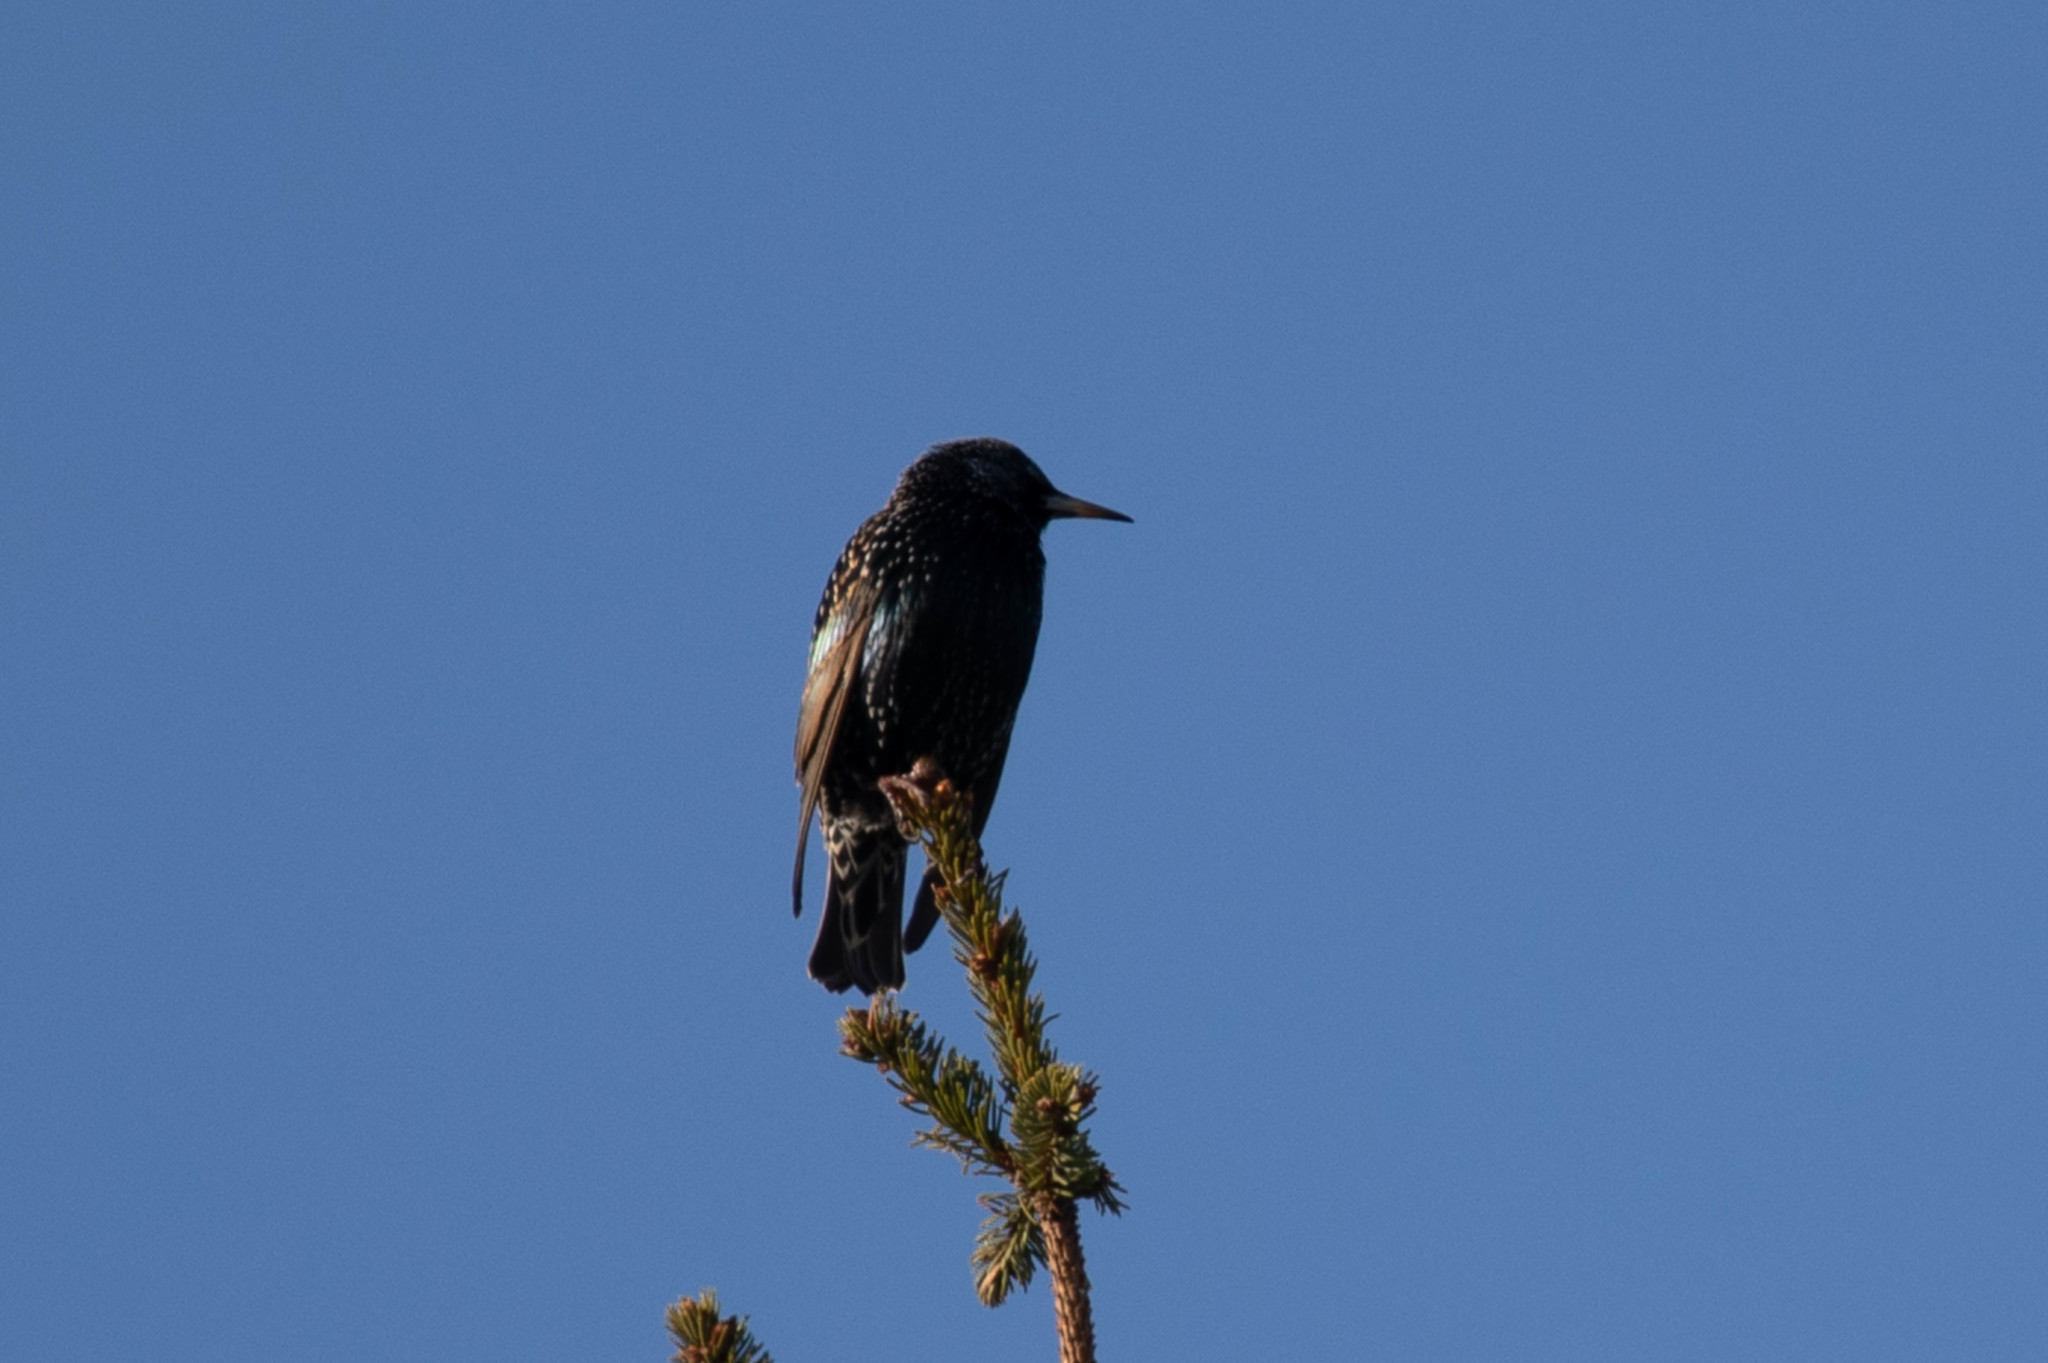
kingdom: Animalia
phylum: Chordata
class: Aves
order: Passeriformes
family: Sturnidae
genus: Sturnus
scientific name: Sturnus vulgaris
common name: Common starling
